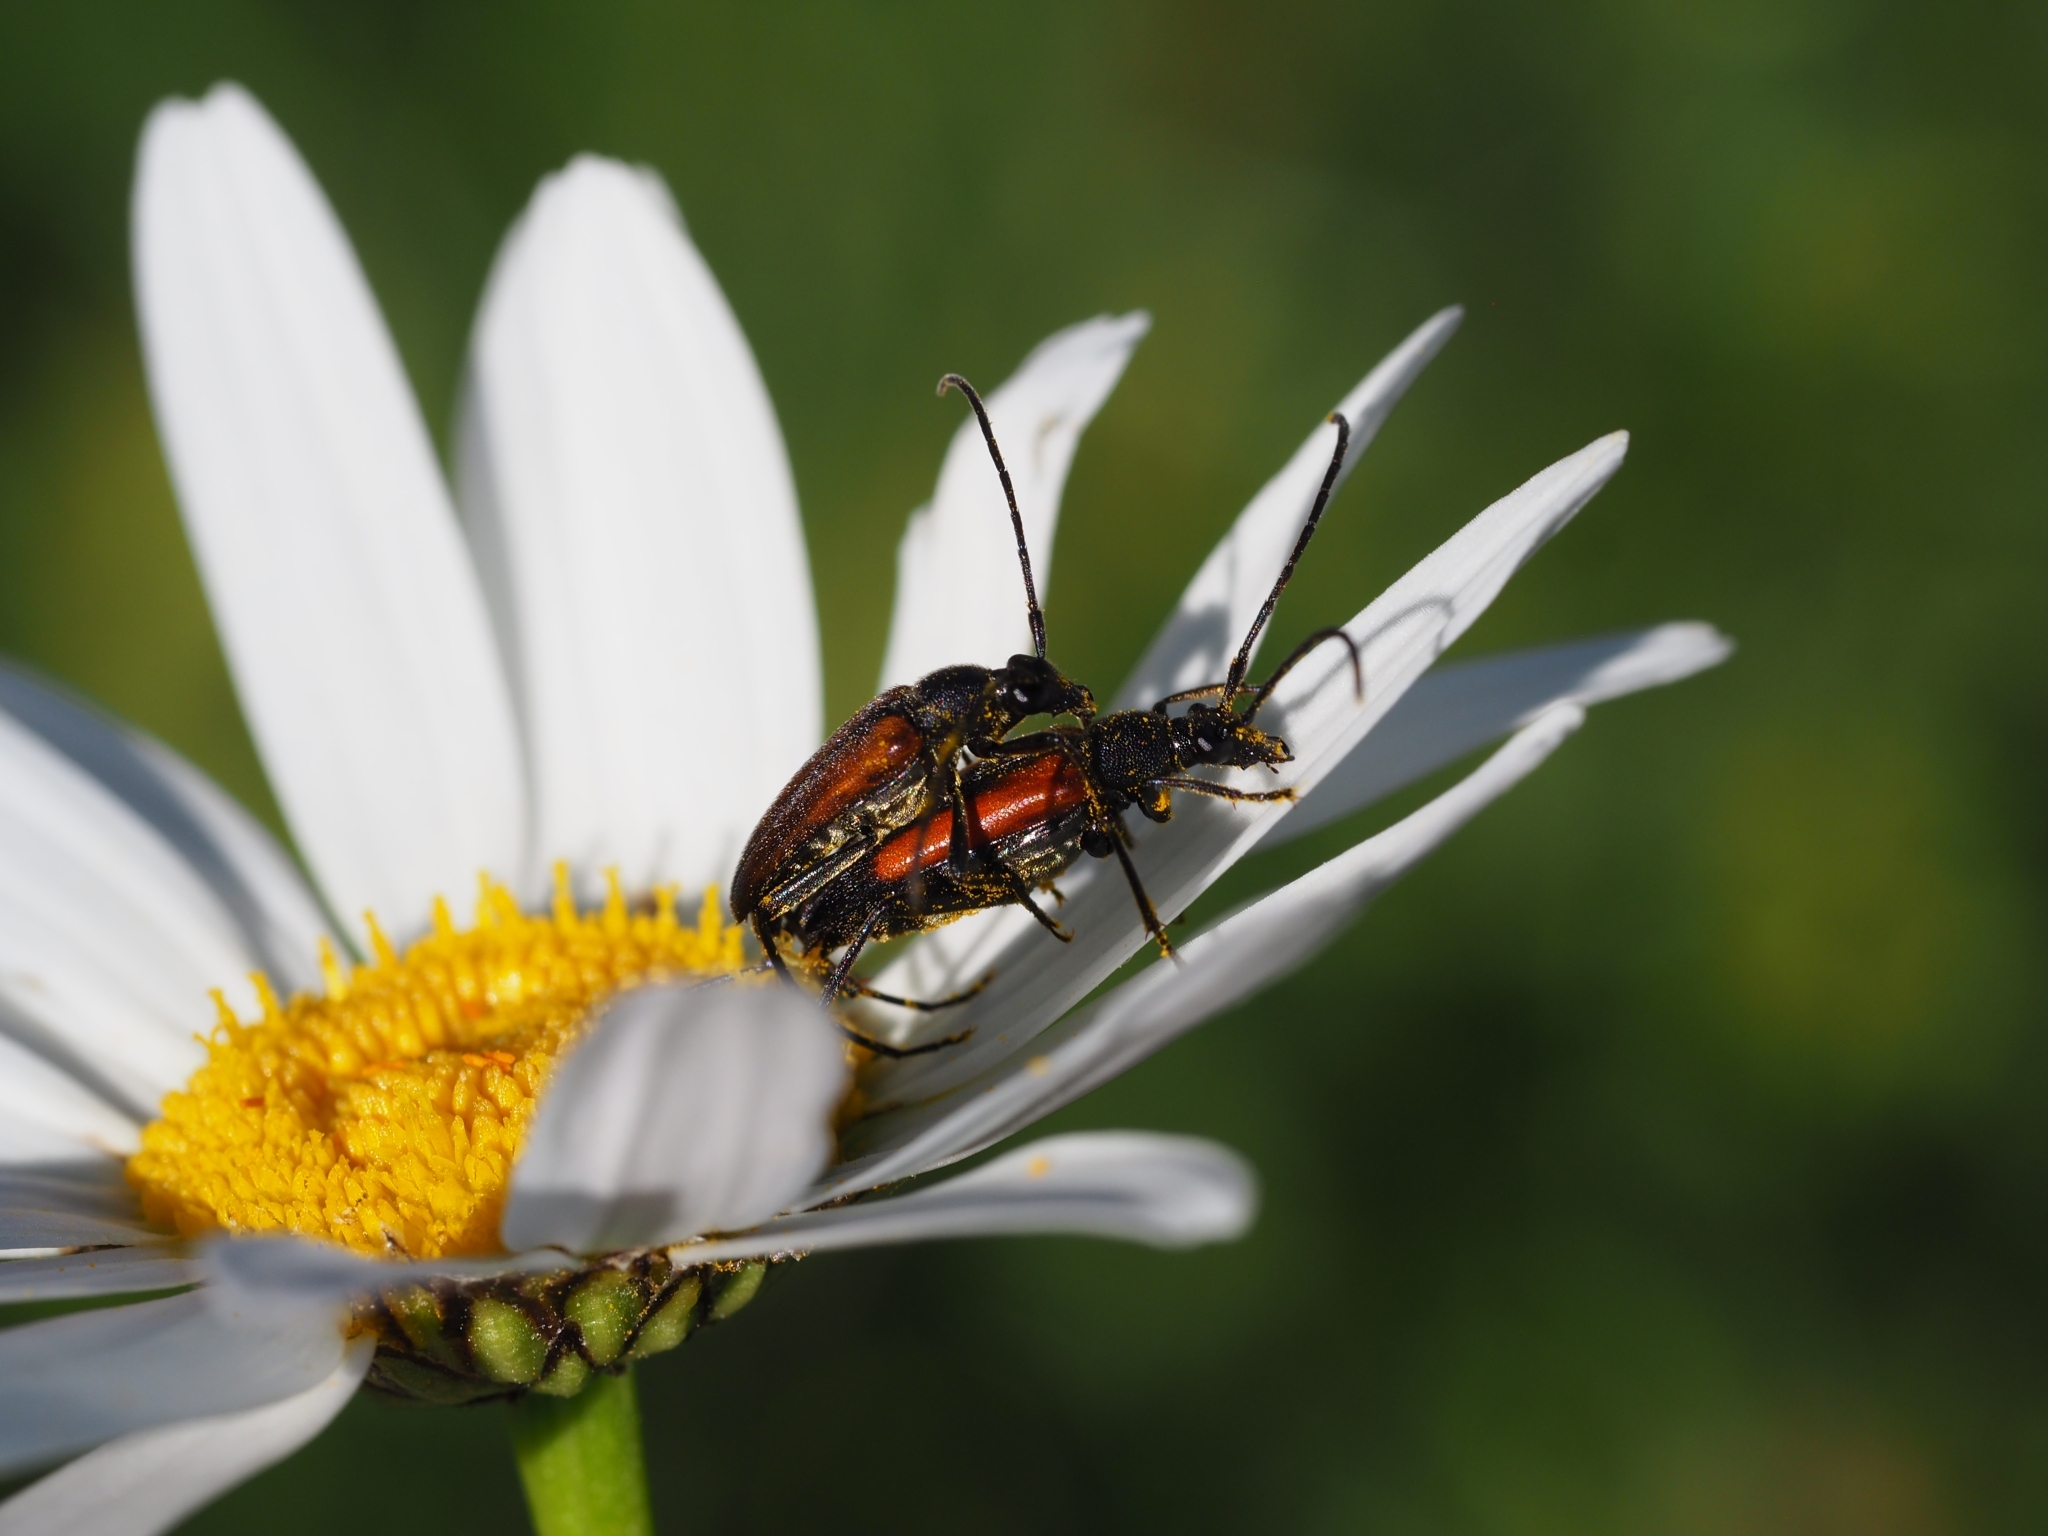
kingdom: Animalia
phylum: Arthropoda
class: Insecta
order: Coleoptera
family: Cerambycidae
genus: Stenurella
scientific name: Stenurella melanura
